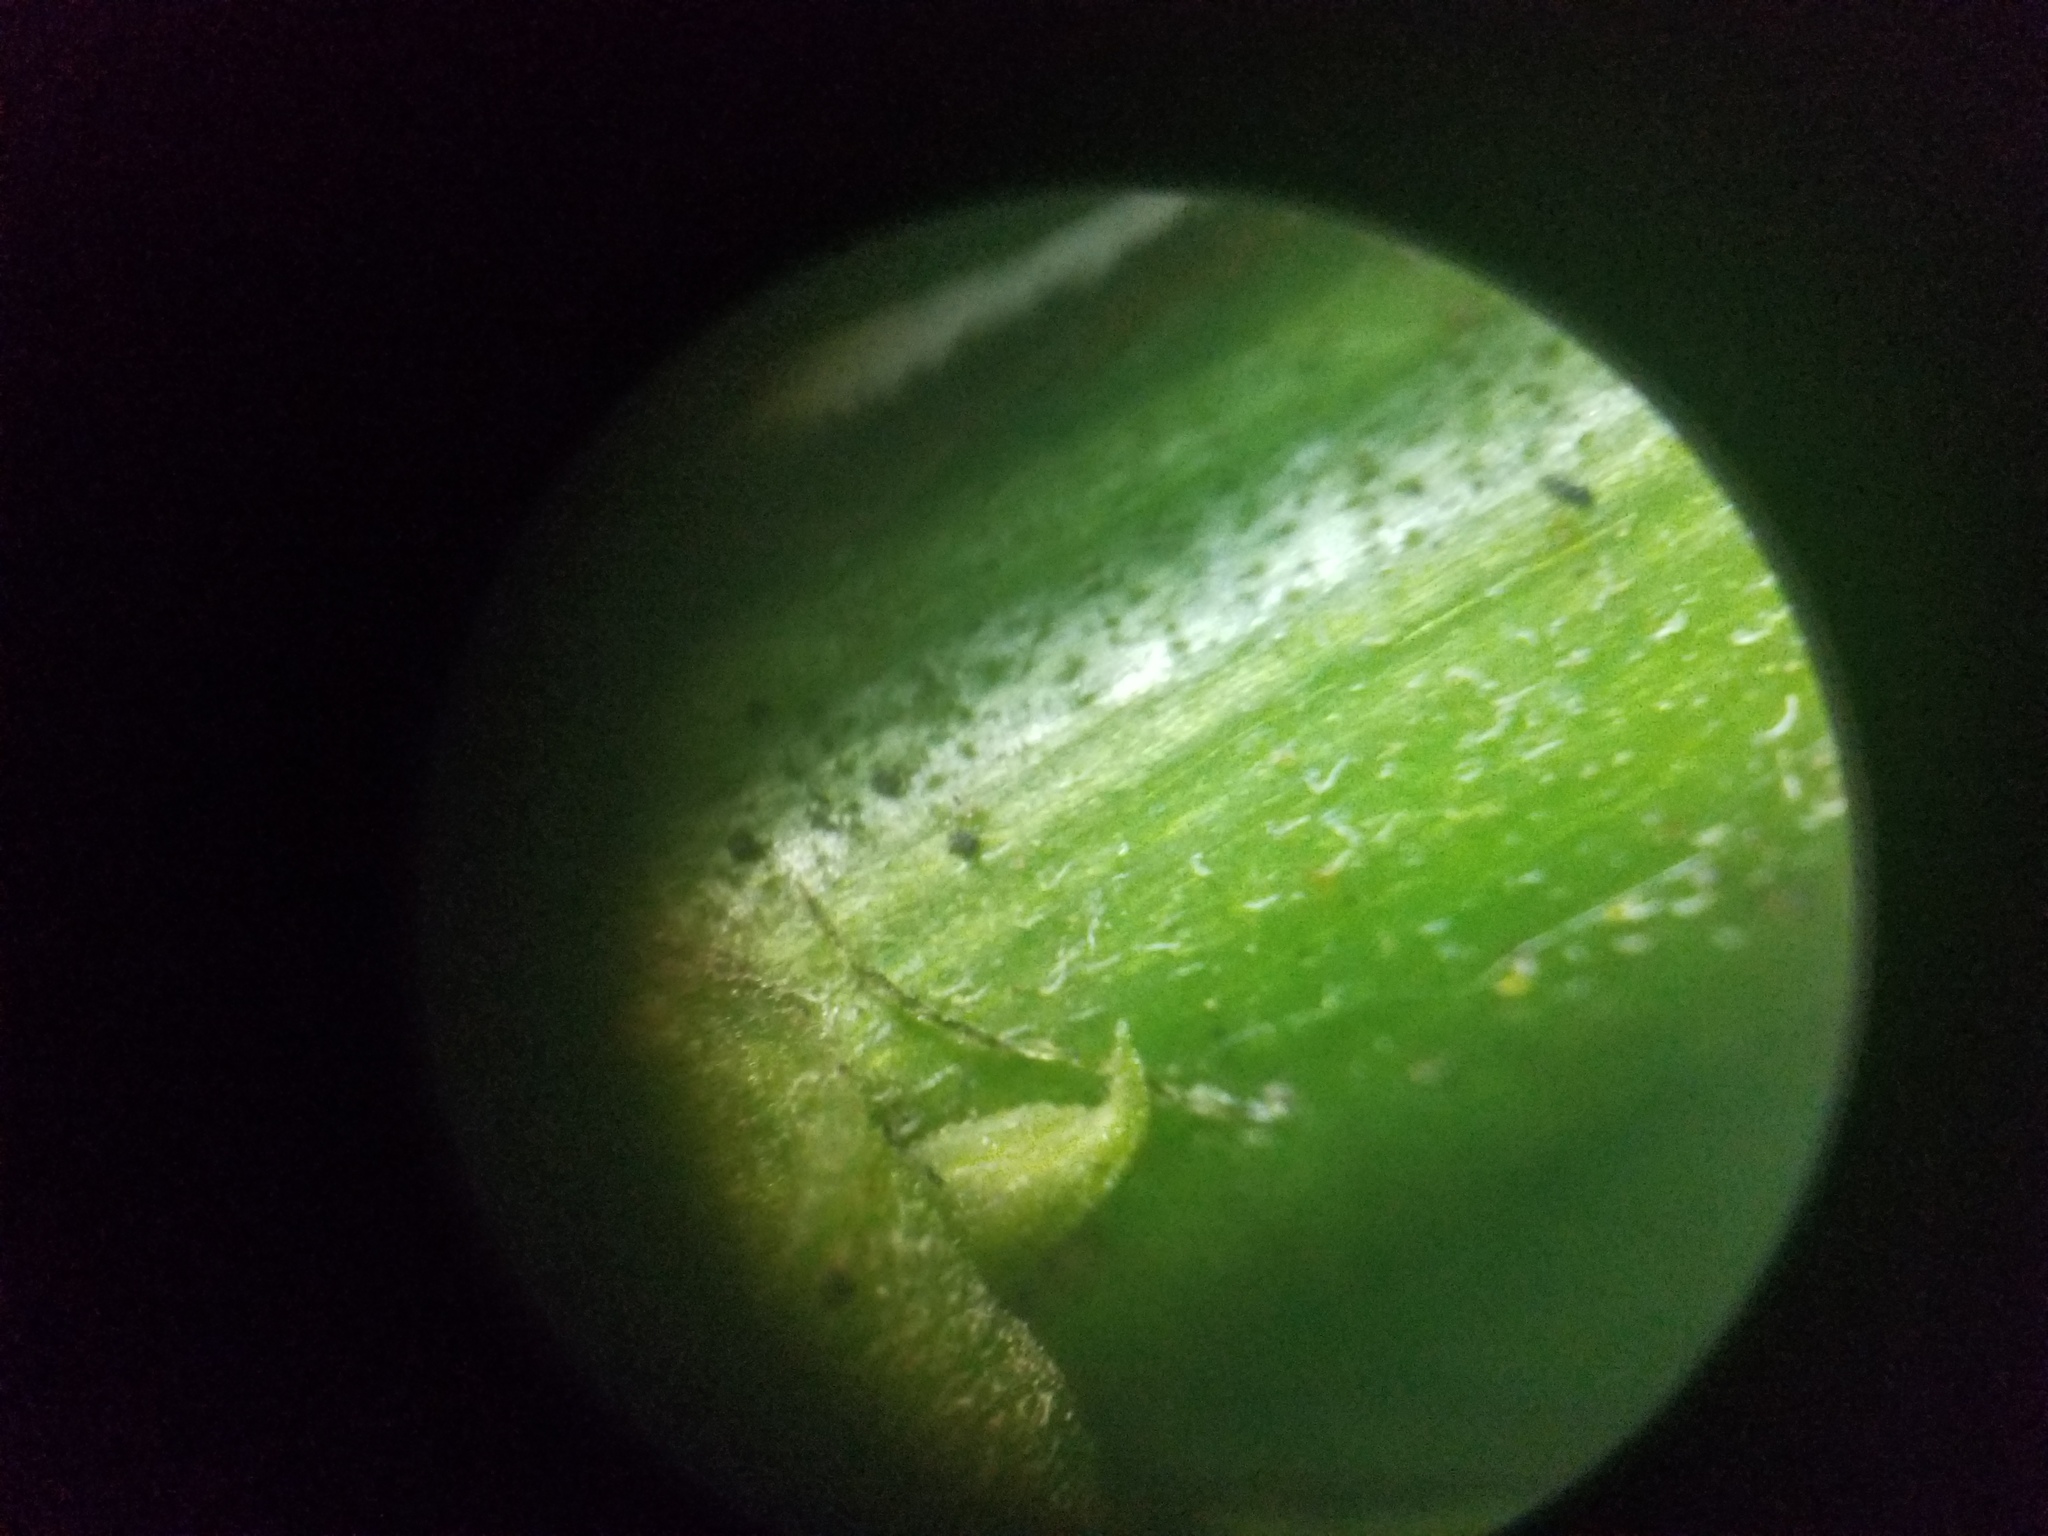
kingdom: Plantae
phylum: Tracheophyta
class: Magnoliopsida
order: Asterales
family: Asteraceae
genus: Solidago
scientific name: Solidago altissima
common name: Late goldenrod
